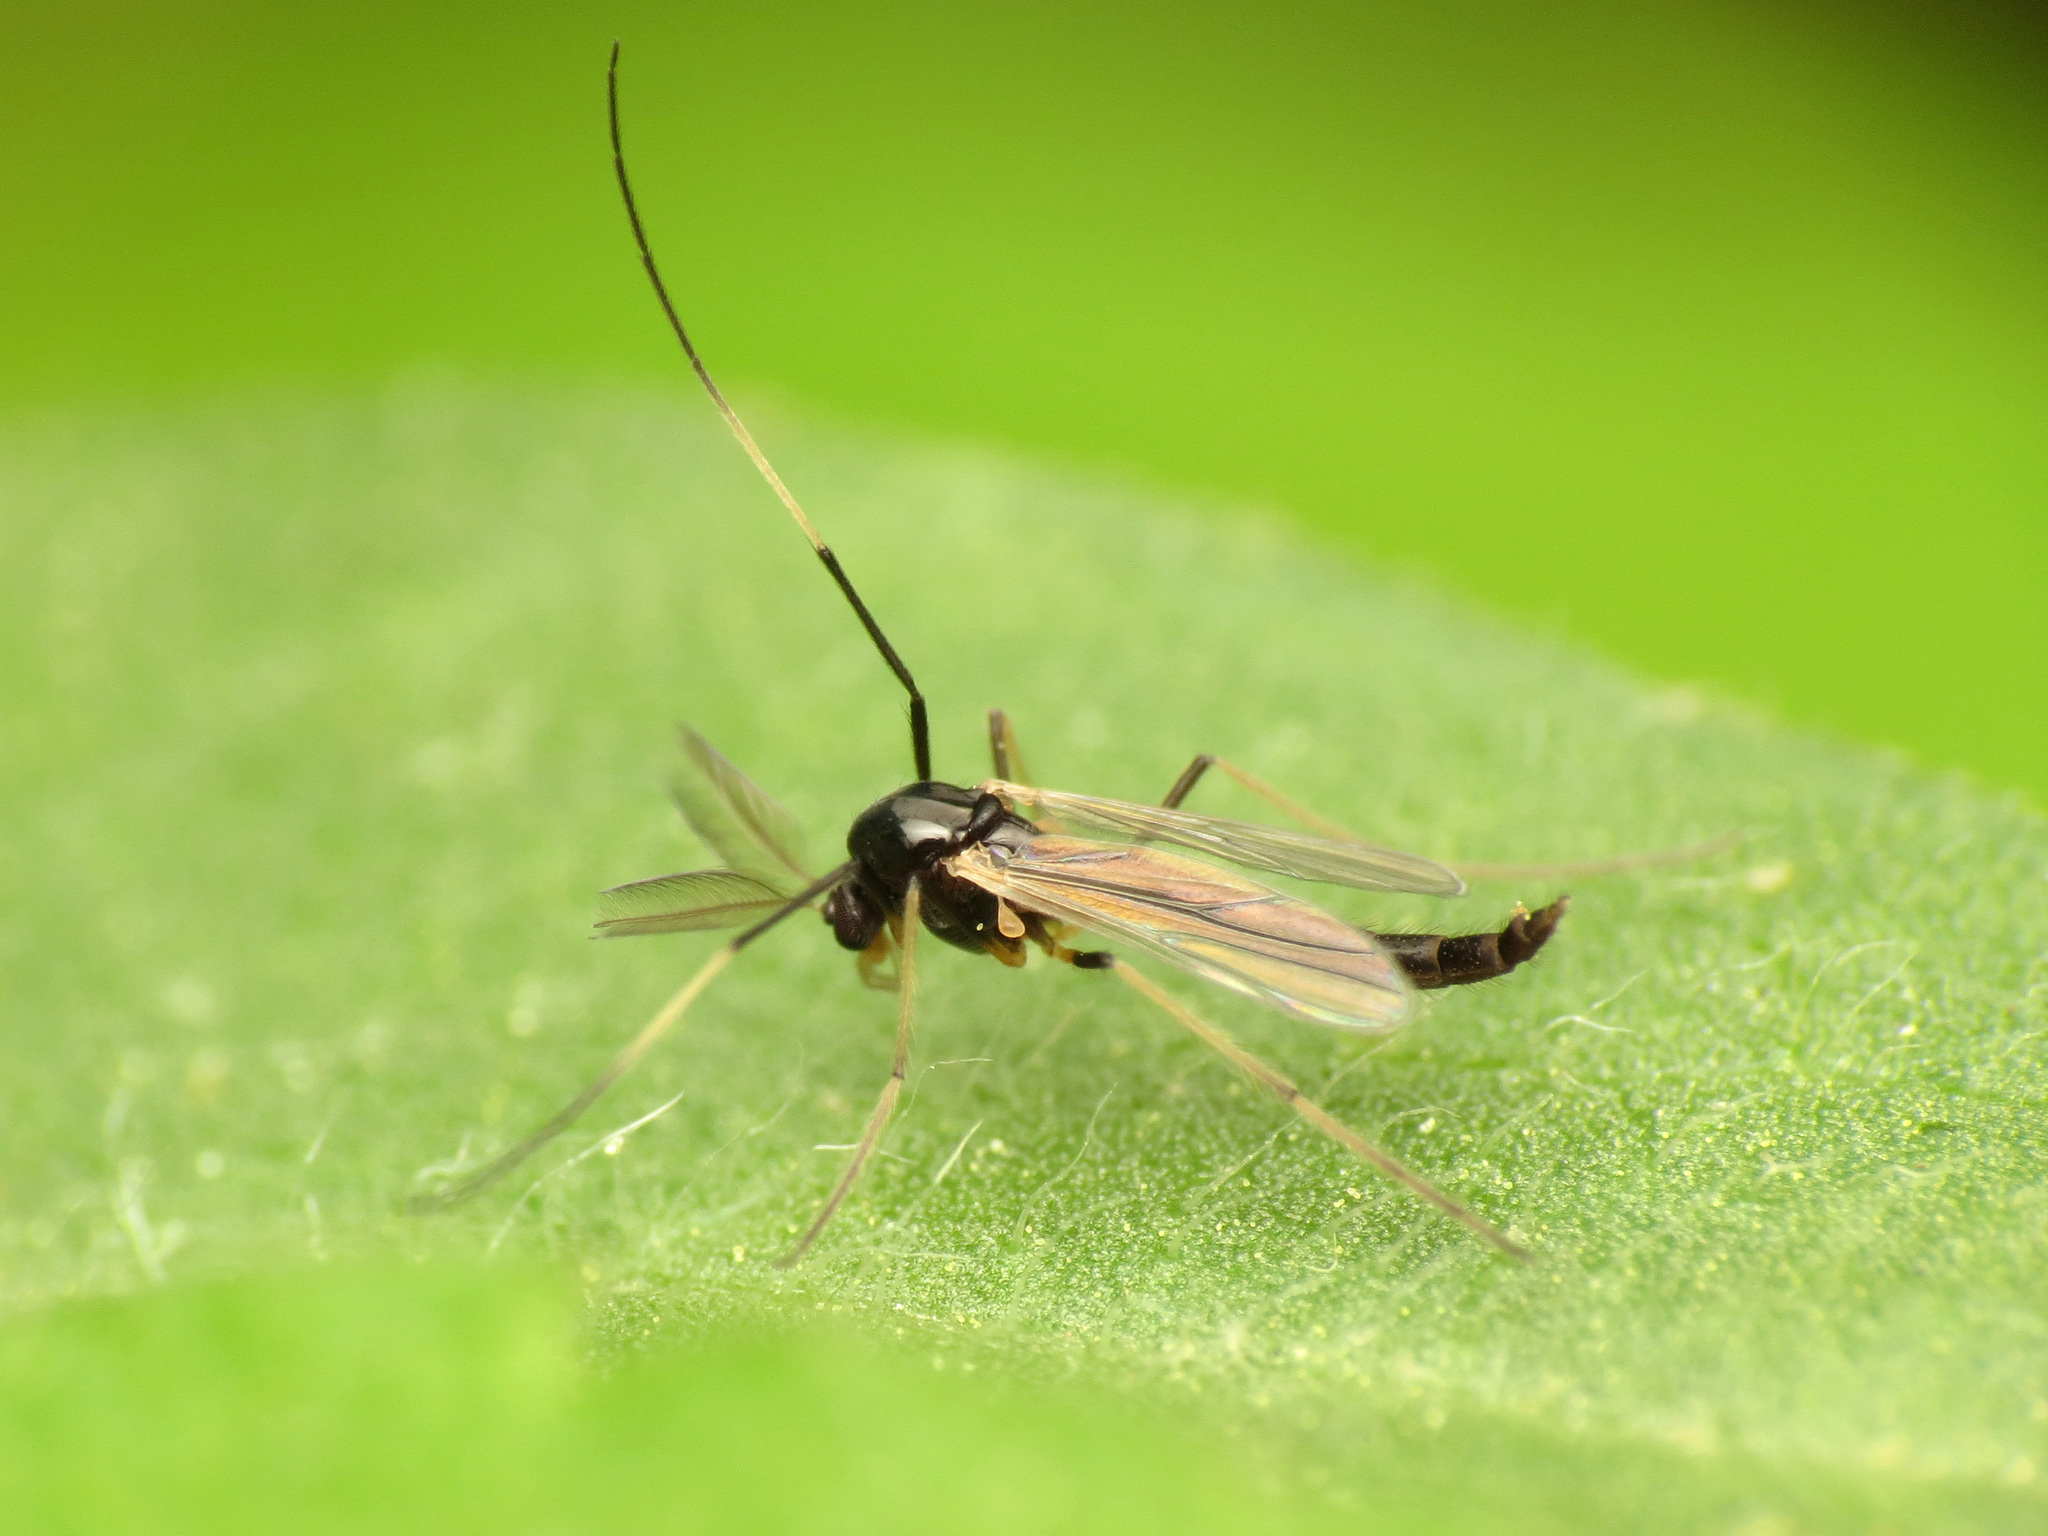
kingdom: Animalia
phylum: Arthropoda
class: Insecta
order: Diptera
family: Chironomidae
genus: Paratendipes
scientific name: Paratendipes albimanus
